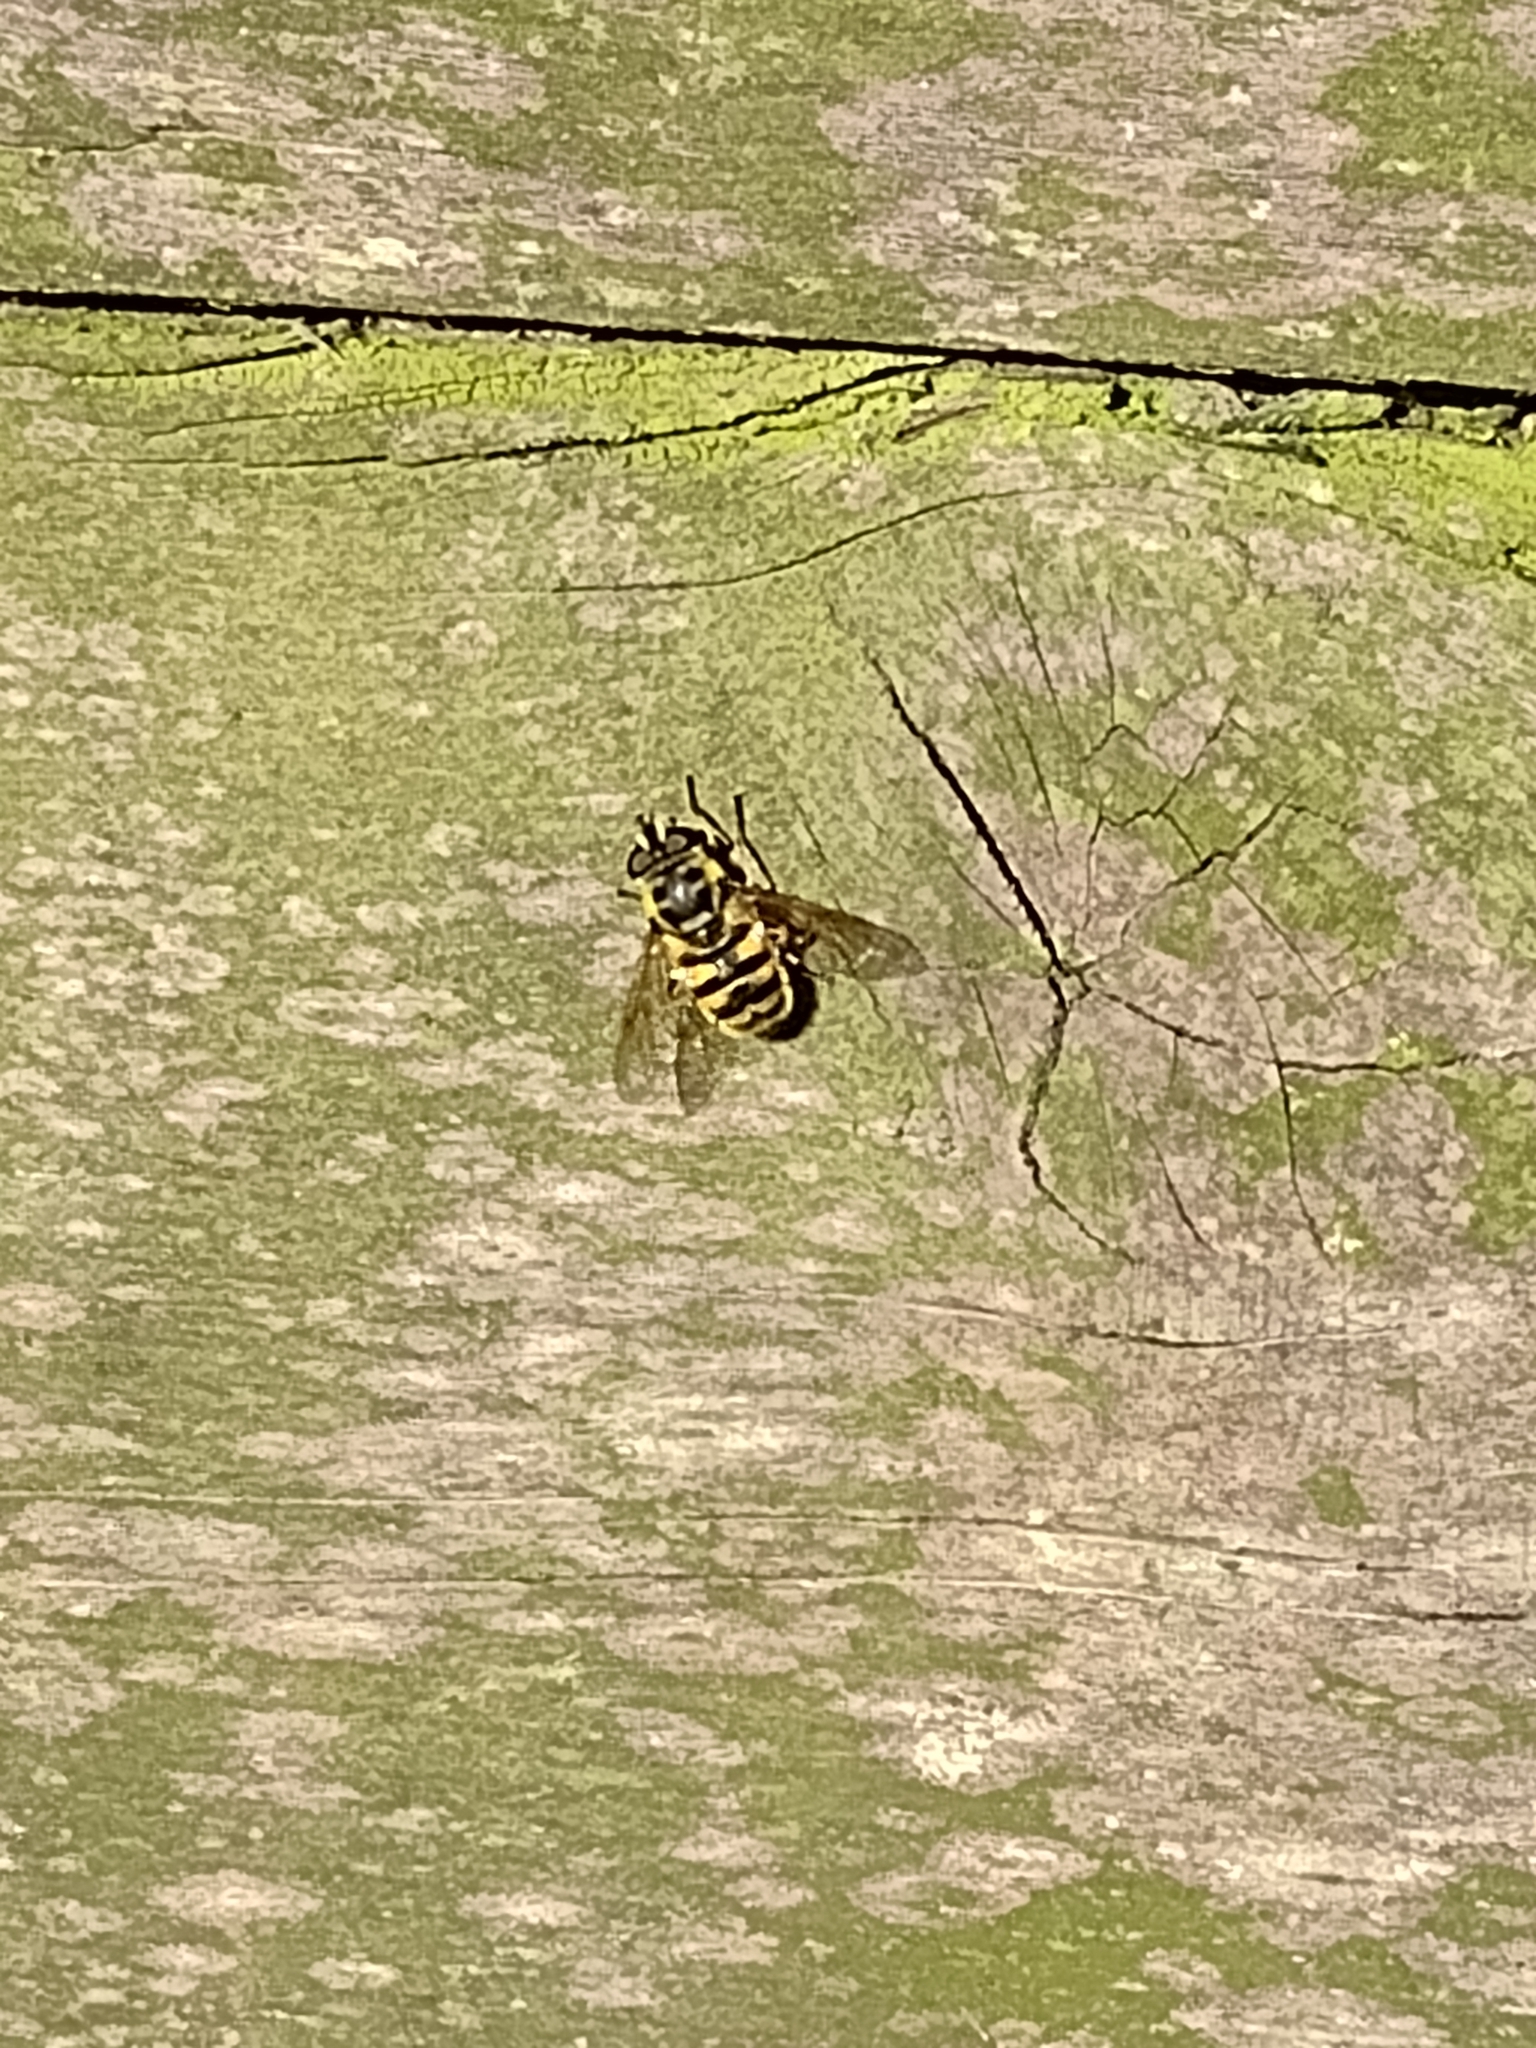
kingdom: Animalia
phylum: Arthropoda
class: Insecta
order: Diptera
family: Syrphidae
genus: Myathropa
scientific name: Myathropa florea
